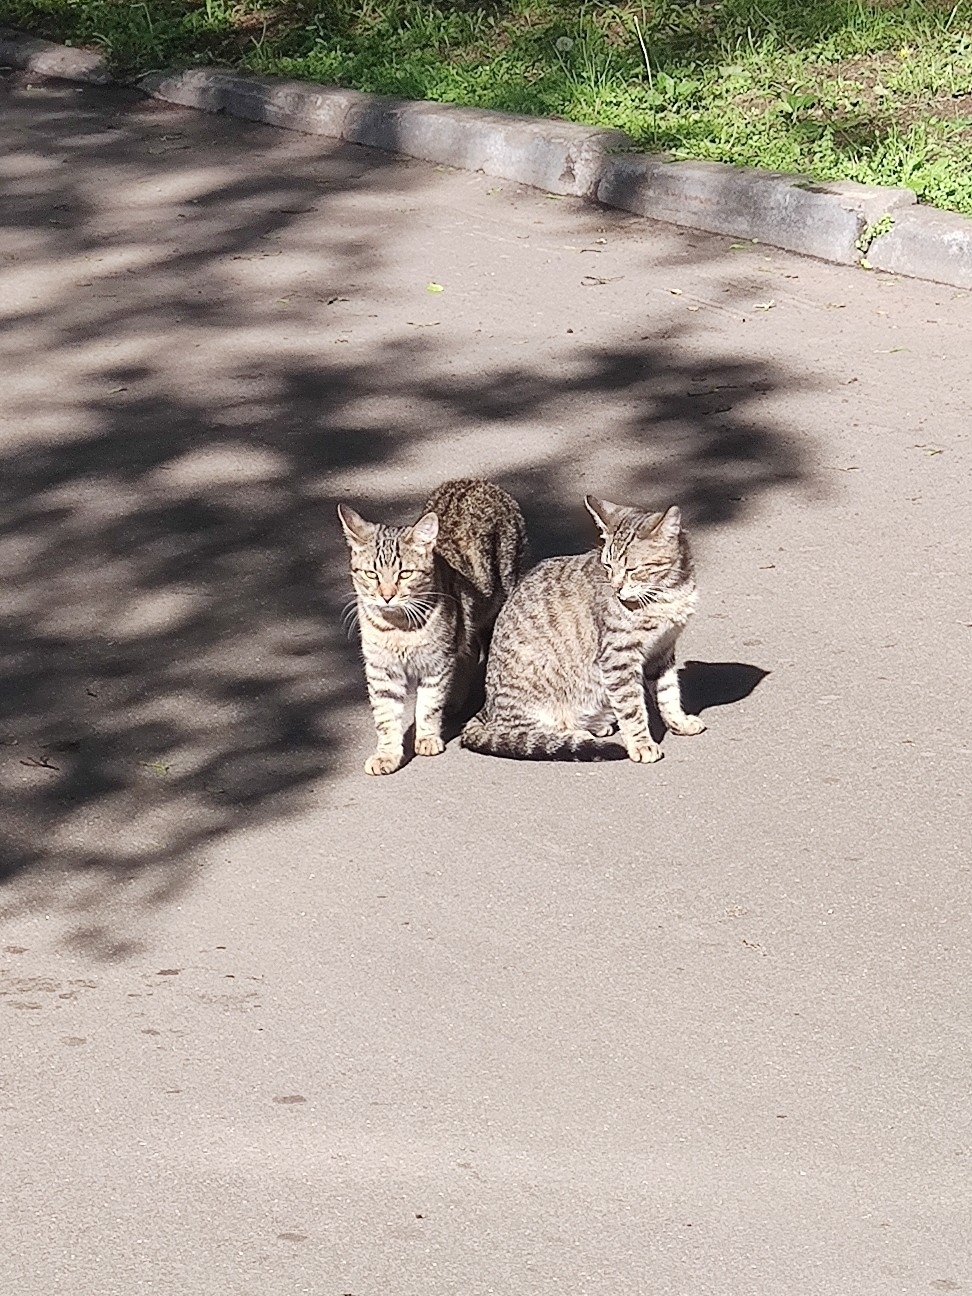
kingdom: Animalia
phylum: Chordata
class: Mammalia
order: Carnivora
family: Felidae
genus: Felis
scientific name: Felis catus
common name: Domestic cat
